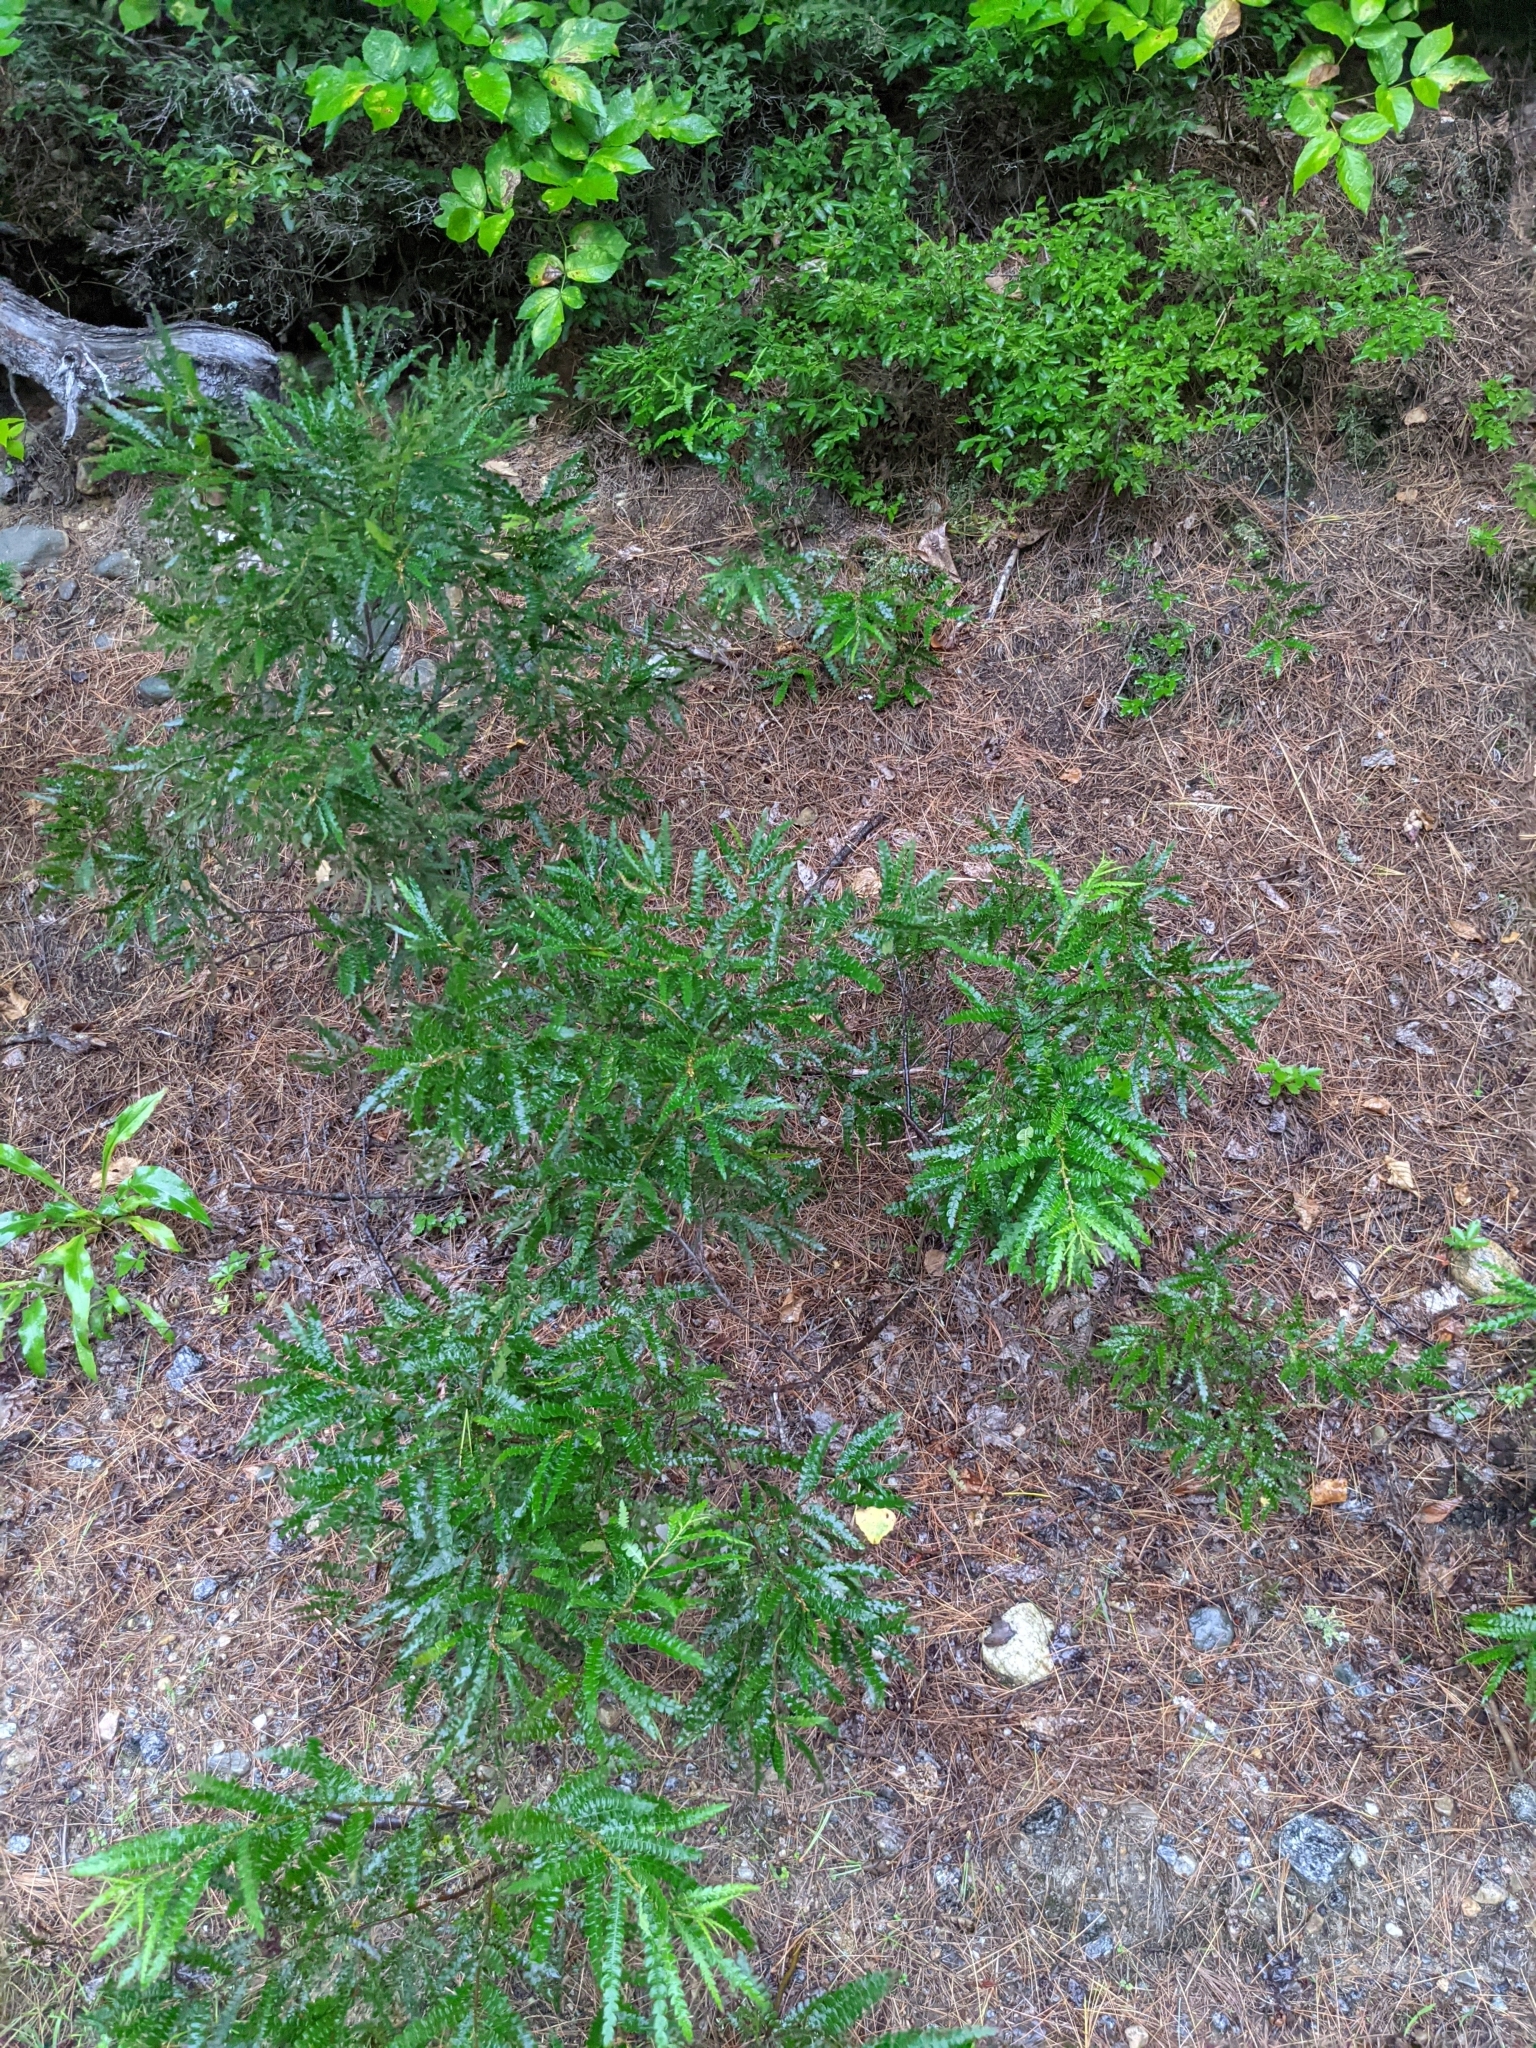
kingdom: Plantae
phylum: Tracheophyta
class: Magnoliopsida
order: Fagales
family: Myricaceae
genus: Comptonia
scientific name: Comptonia peregrina
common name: Sweet-fern
